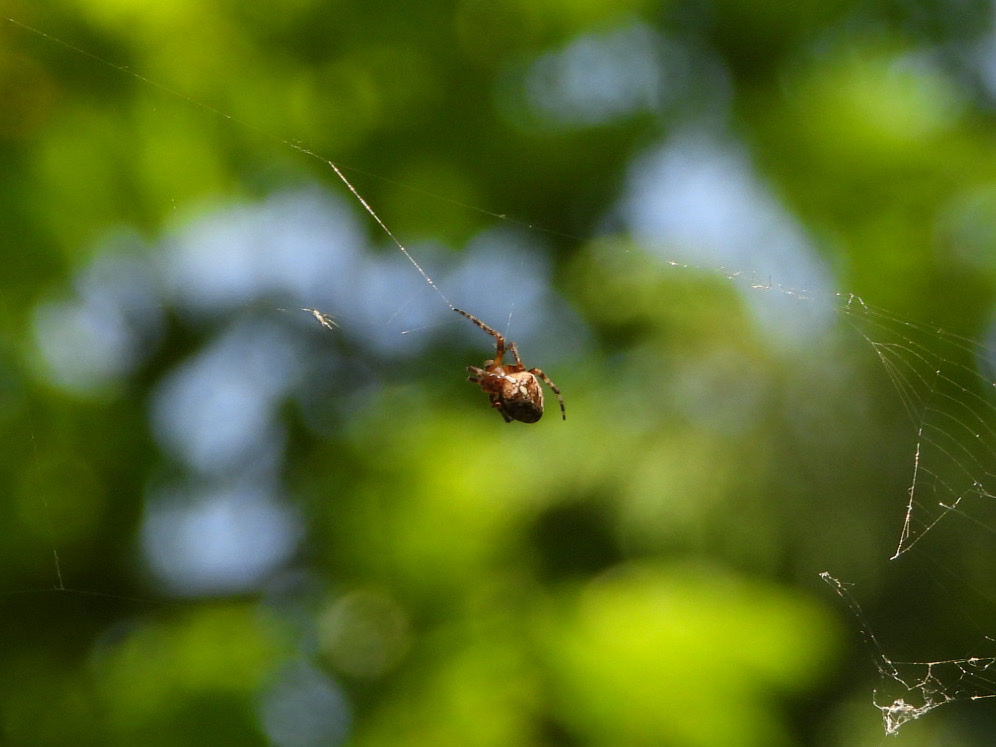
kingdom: Animalia
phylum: Arthropoda
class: Arachnida
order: Araneae
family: Araneidae
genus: Araneus
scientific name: Araneus diadematus
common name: Cross orbweaver
